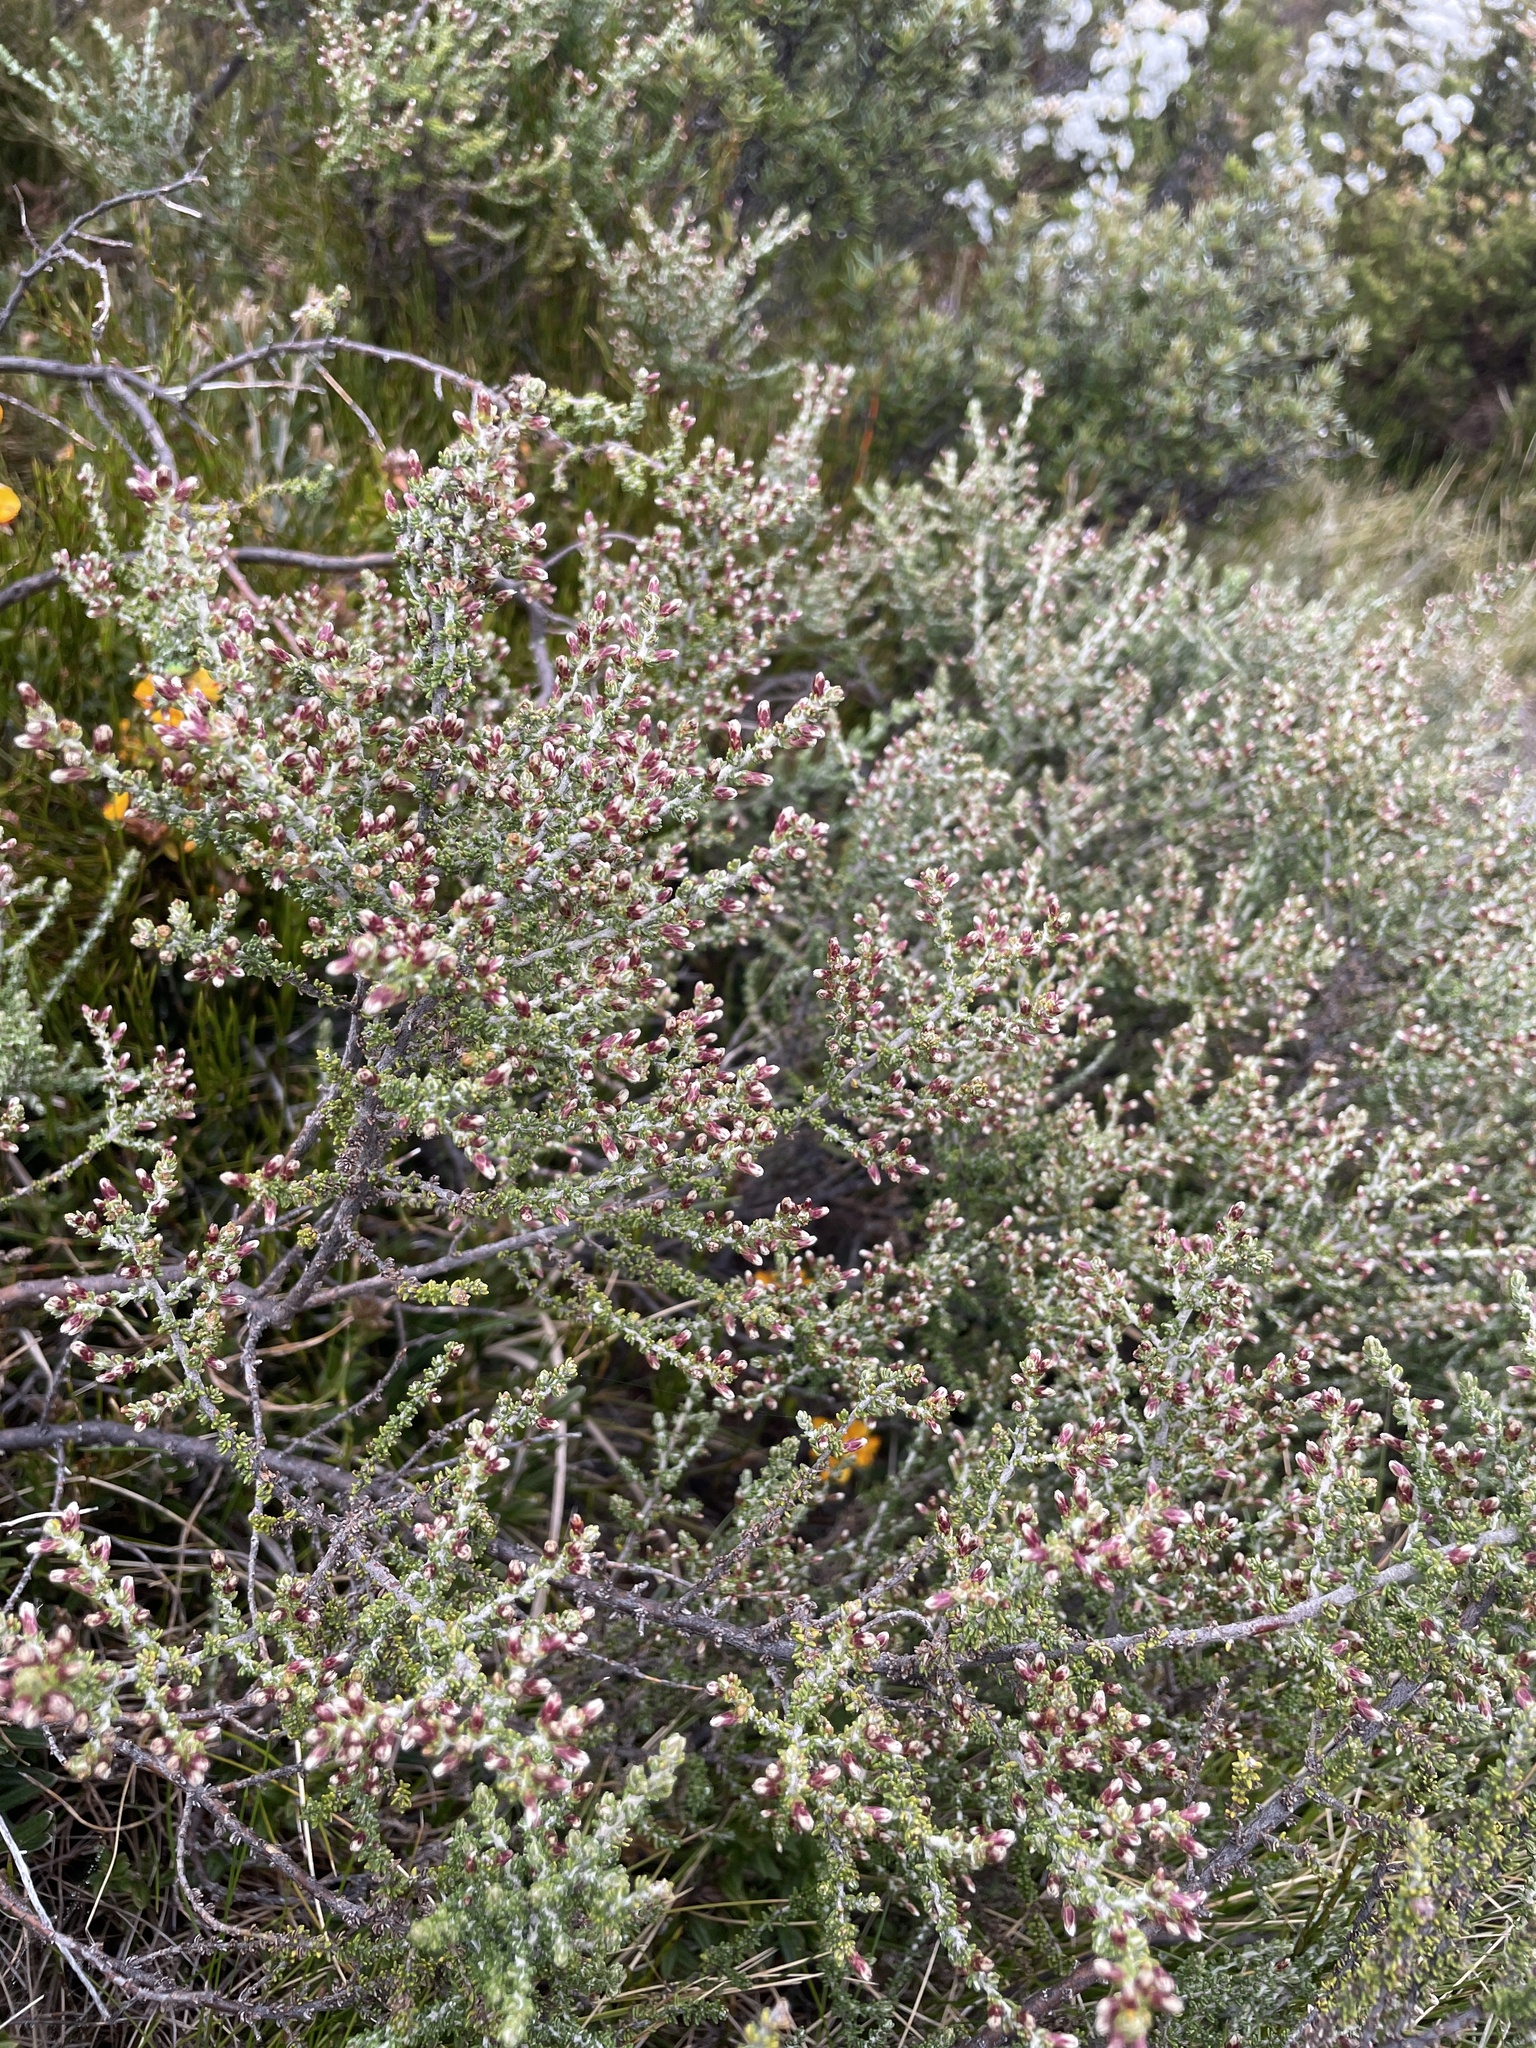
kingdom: Plantae
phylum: Tracheophyta
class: Magnoliopsida
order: Asterales
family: Asteraceae
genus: Olearia
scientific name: Olearia algida
